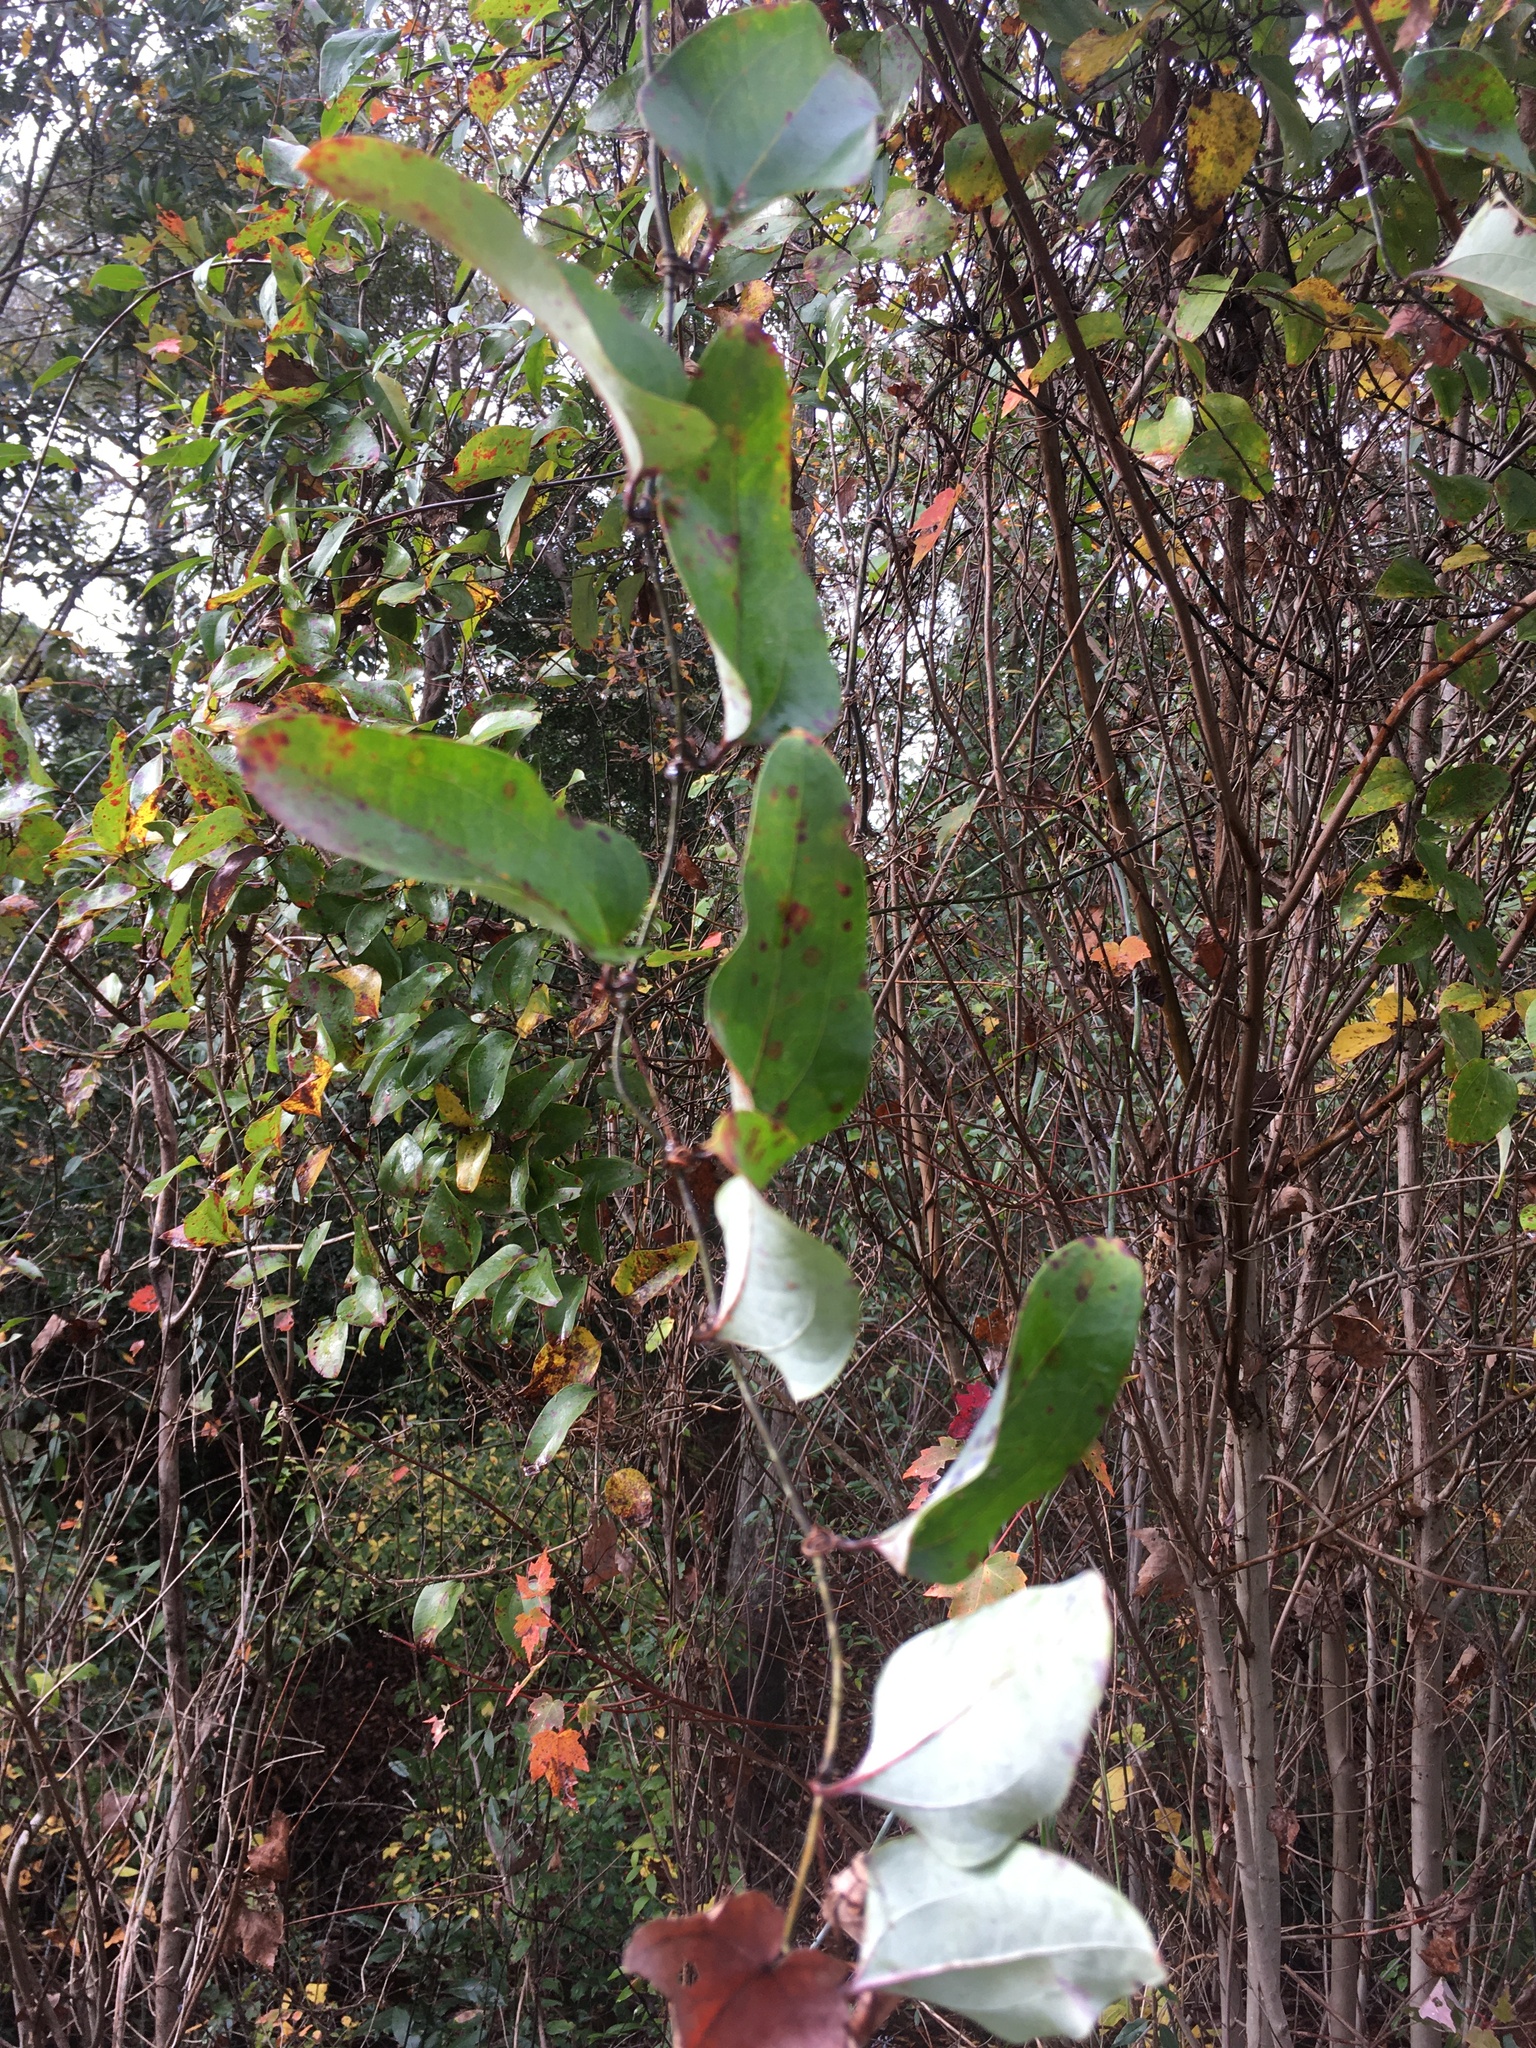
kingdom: Plantae
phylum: Tracheophyta
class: Liliopsida
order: Liliales
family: Smilacaceae
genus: Smilax
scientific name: Smilax glauca
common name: Cat greenbrier
